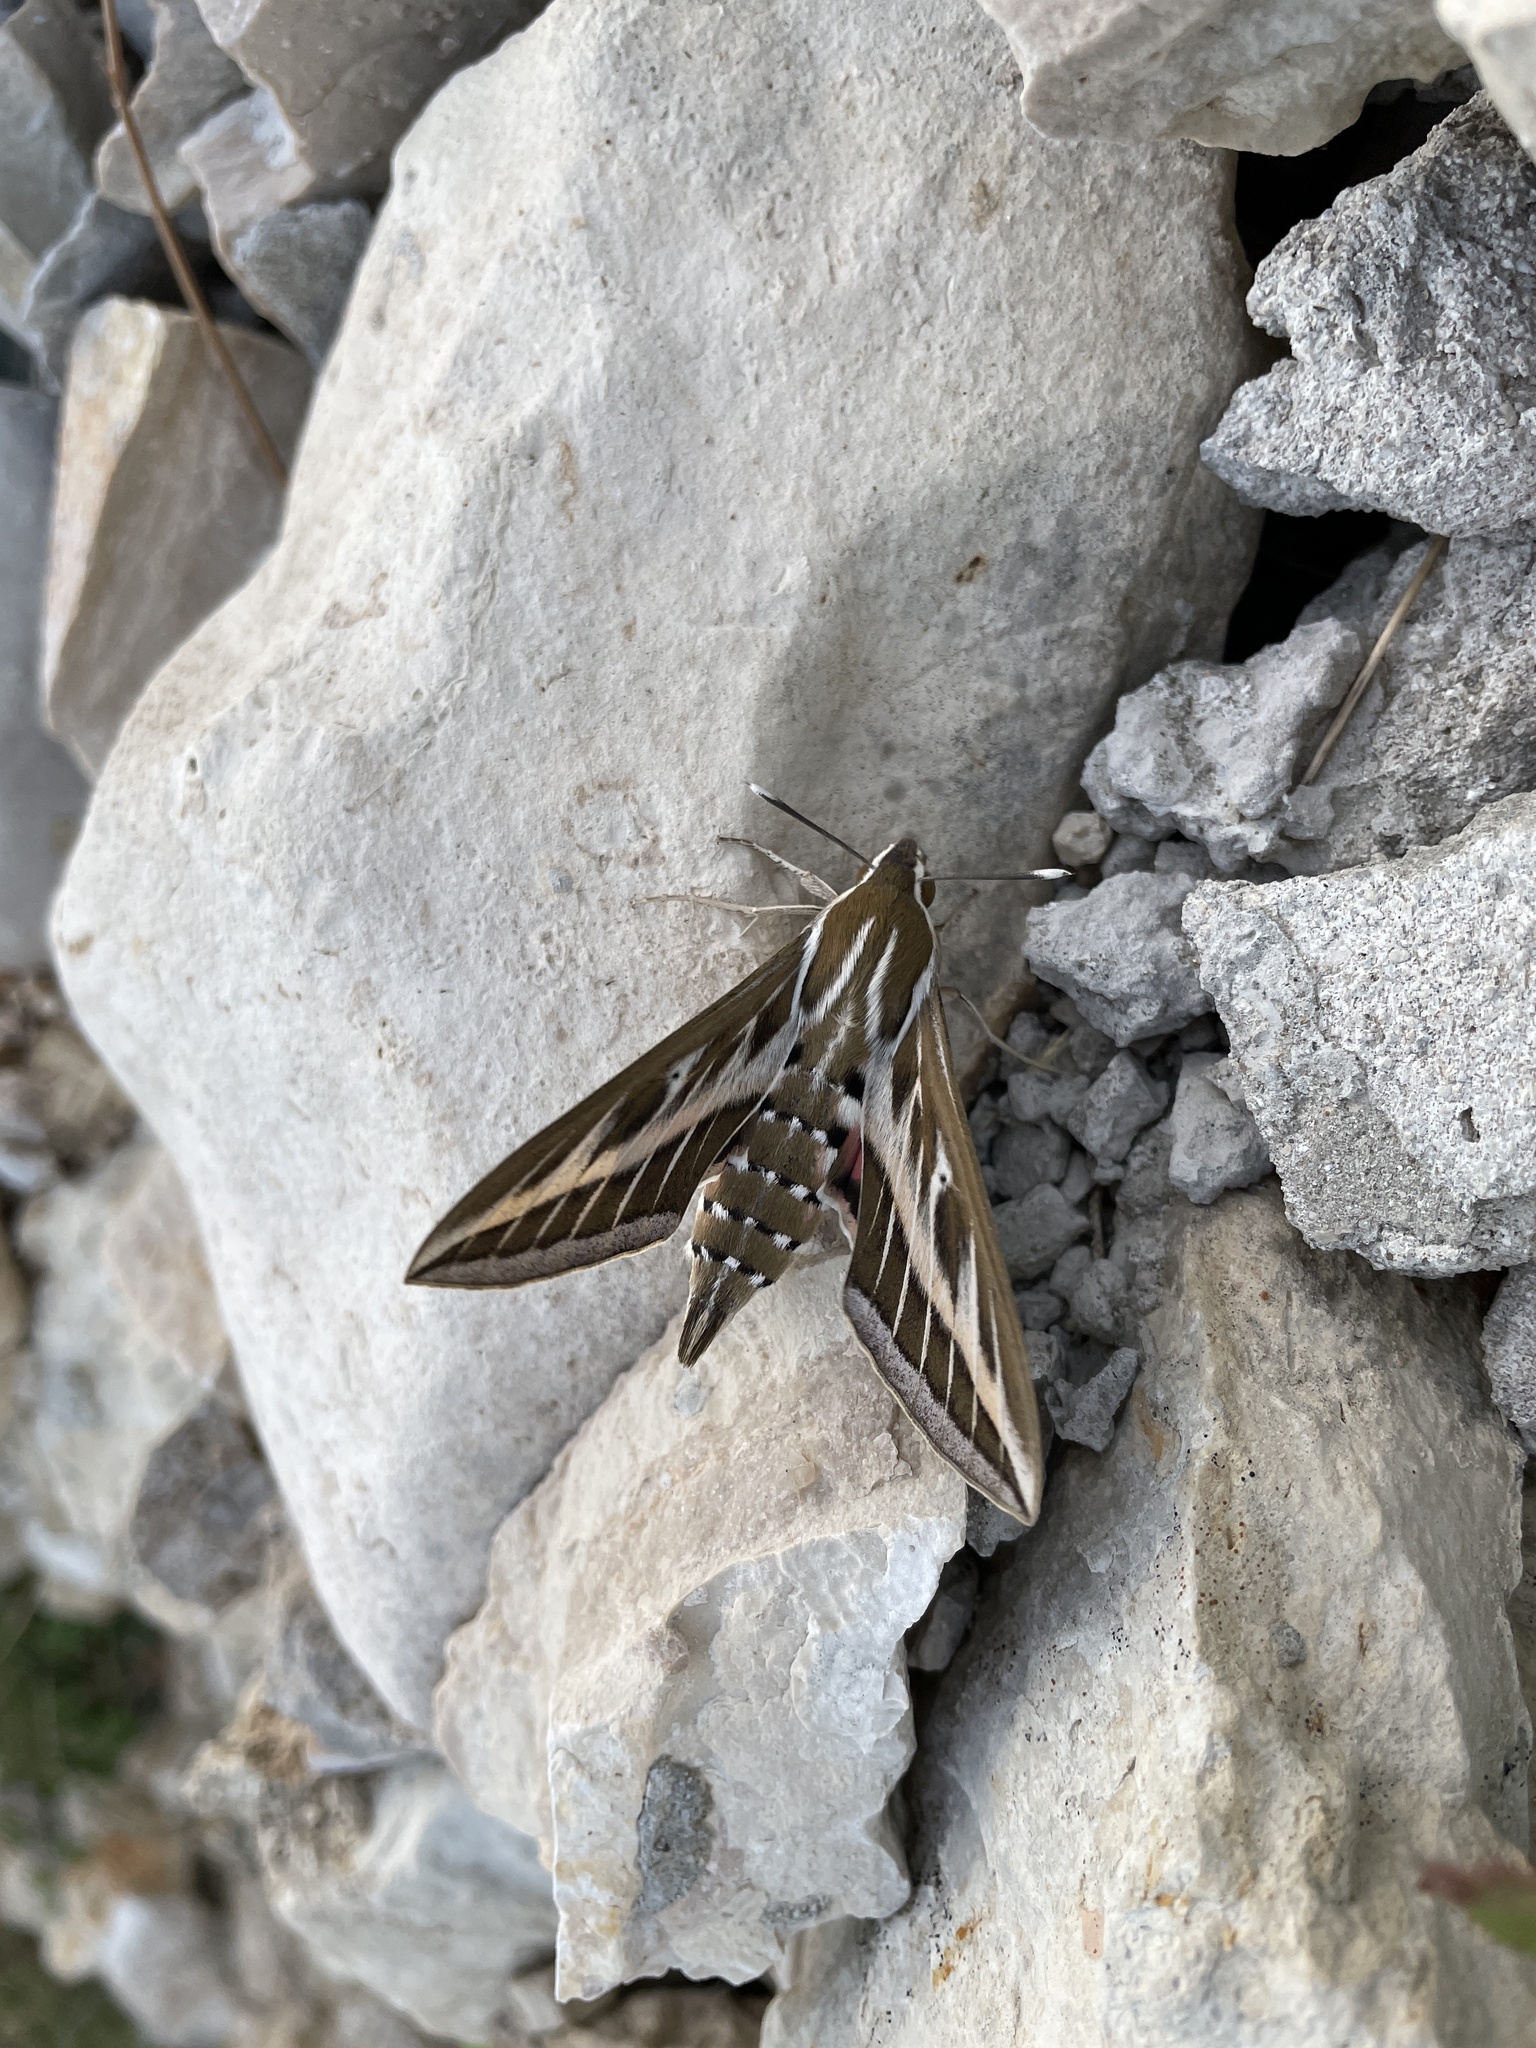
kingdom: Animalia
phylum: Arthropoda
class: Insecta
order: Lepidoptera
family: Sphingidae
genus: Hyles
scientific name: Hyles livornica
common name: Striped hawk-moth
